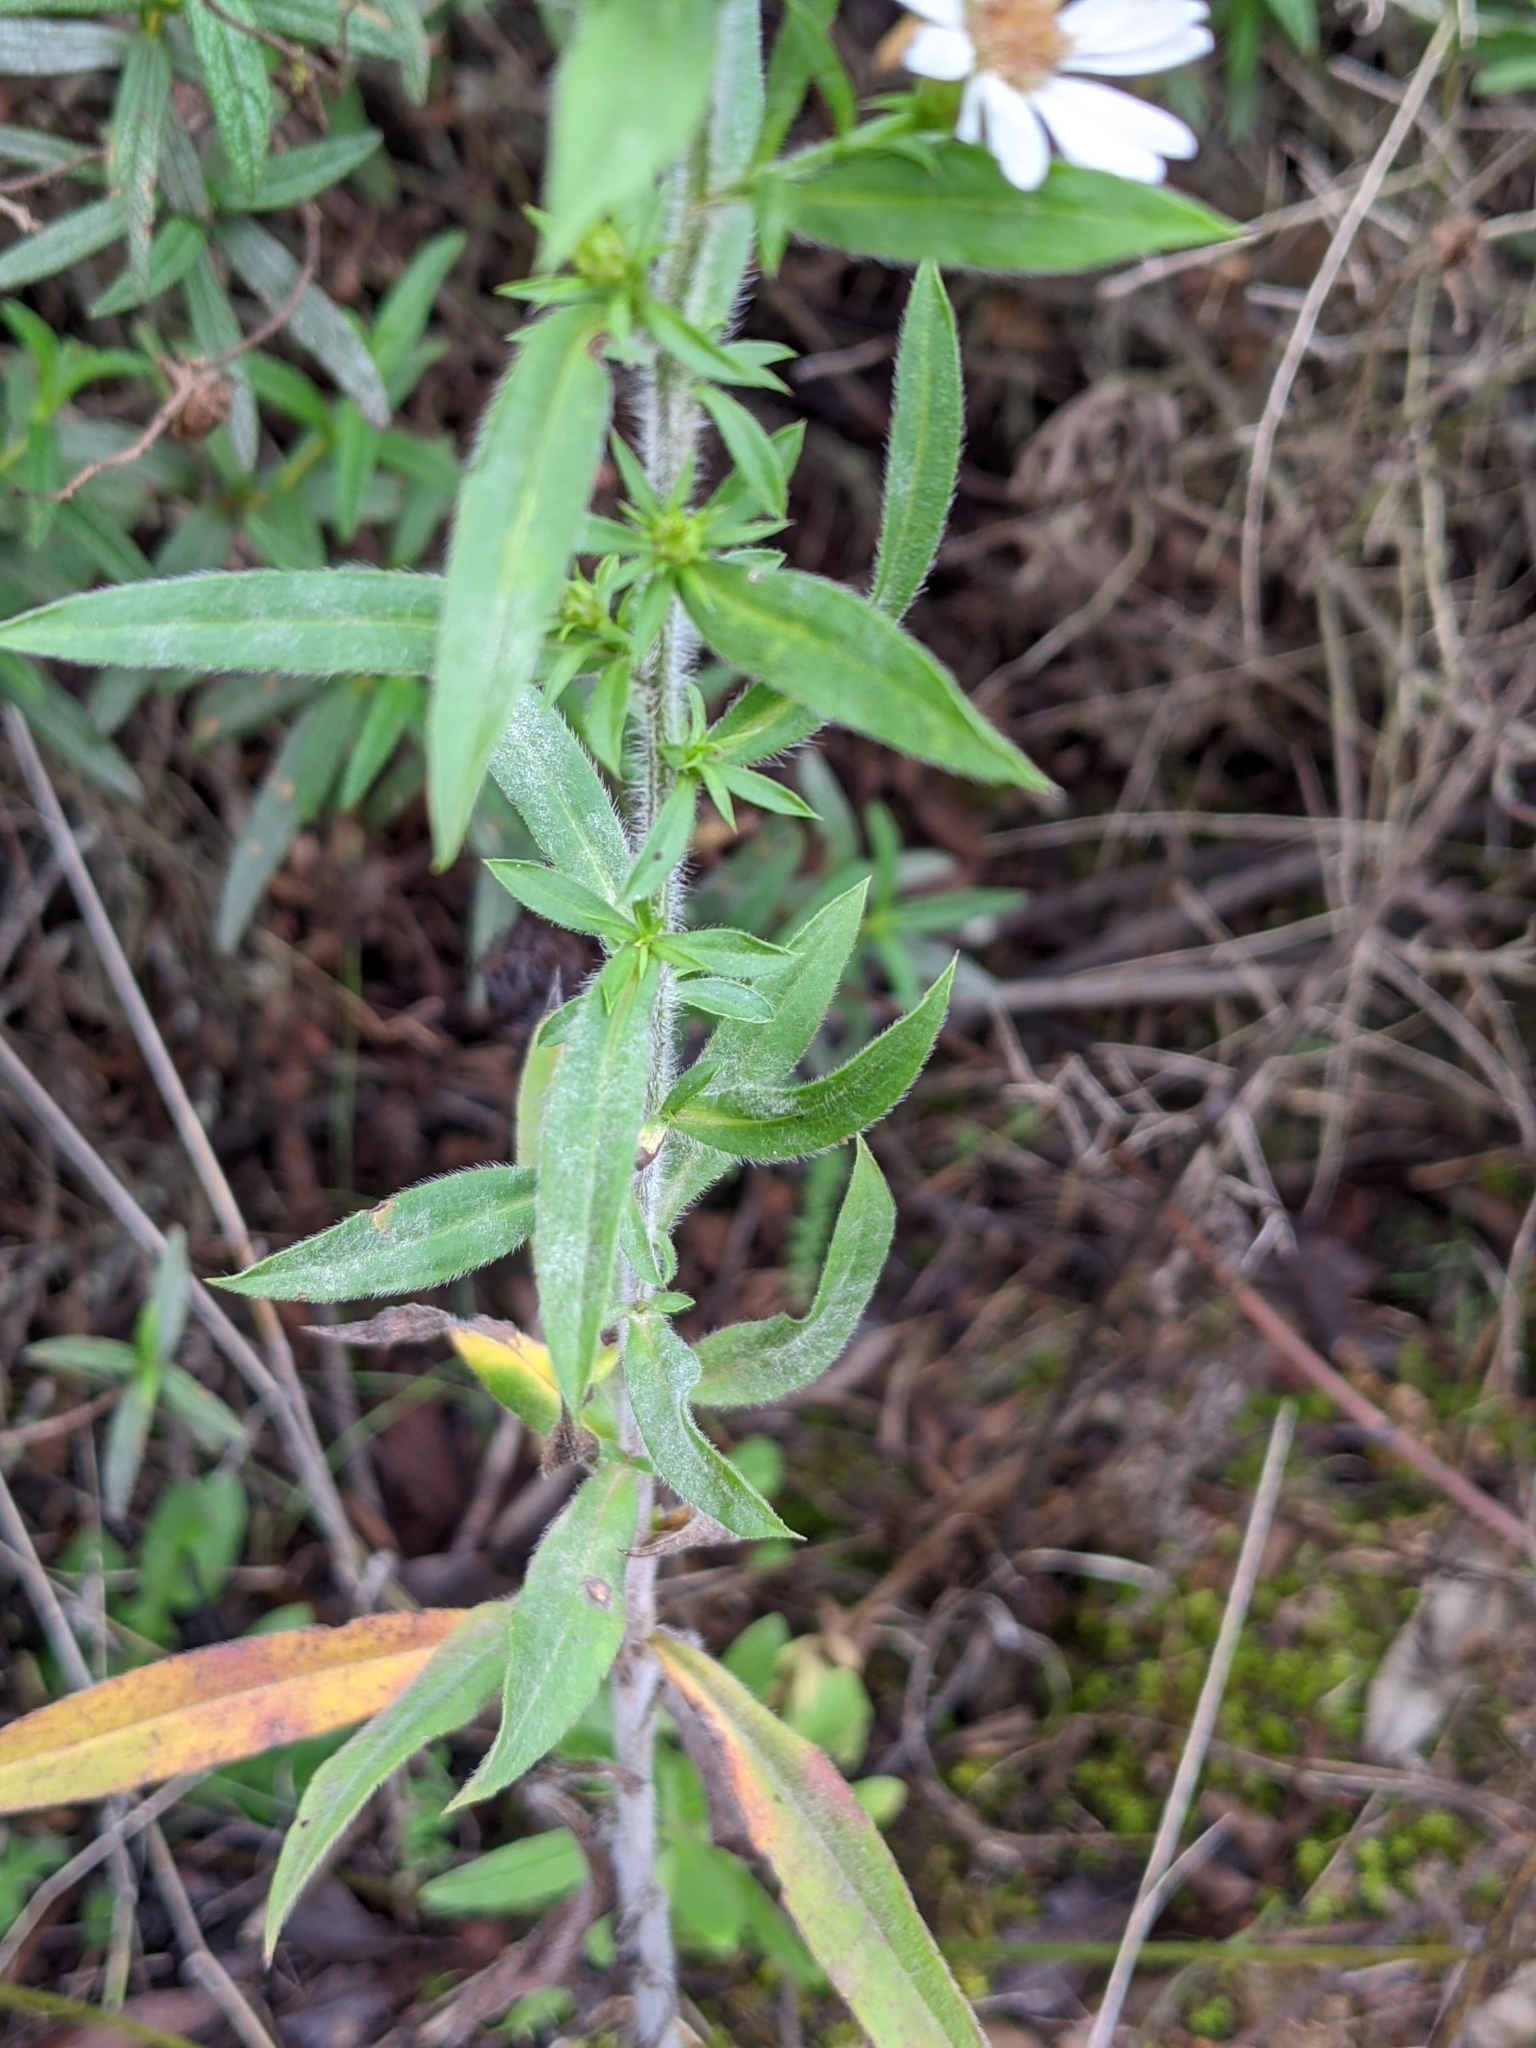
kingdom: Plantae
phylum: Tracheophyta
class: Magnoliopsida
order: Asterales
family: Asteraceae
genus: Symphyotrichum
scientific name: Symphyotrichum pilosum
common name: Awl aster
